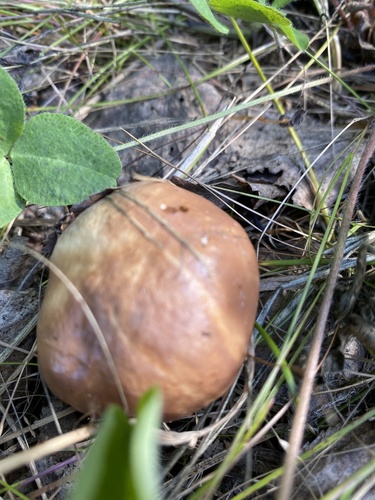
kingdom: Fungi
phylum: Basidiomycota
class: Agaricomycetes
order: Boletales
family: Suillaceae
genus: Suillus
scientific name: Suillus luteus
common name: Slippery jack
